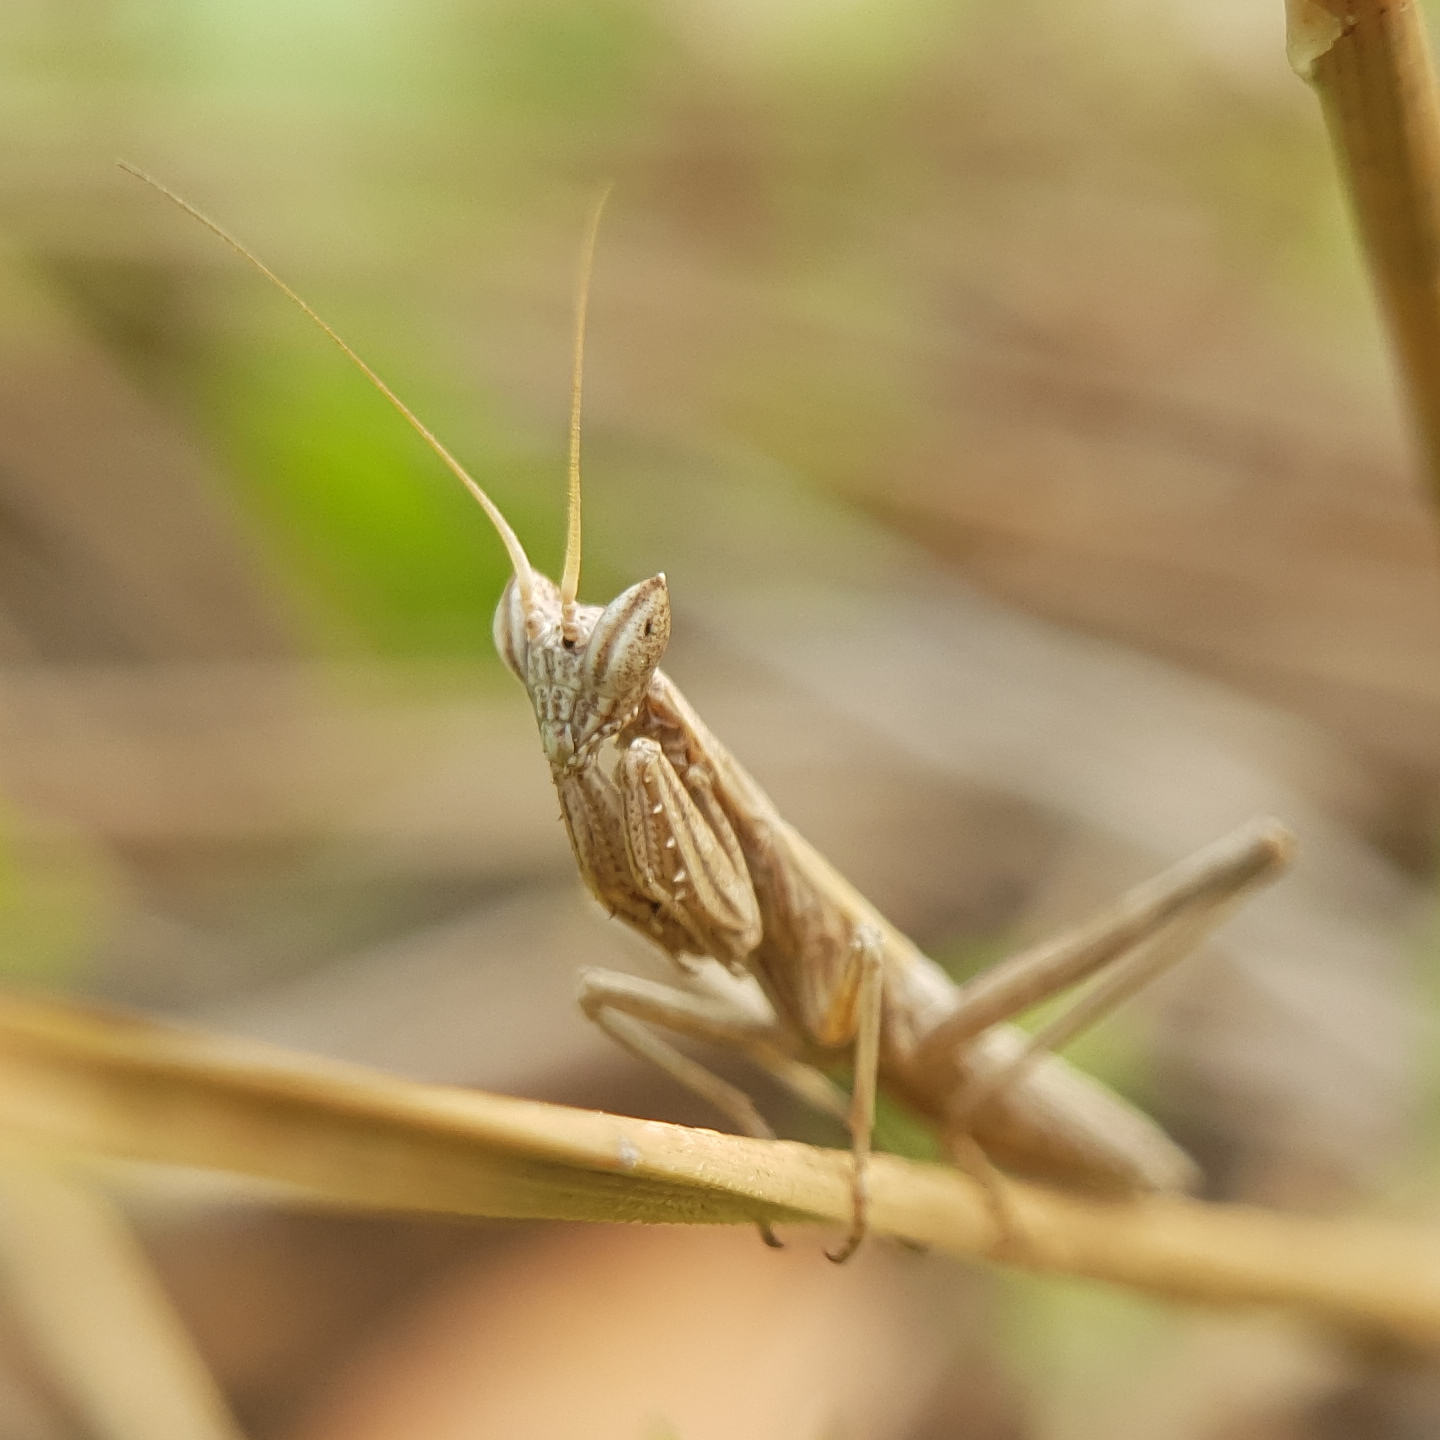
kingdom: Animalia
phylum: Arthropoda
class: Insecta
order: Mantodea
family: Amelidae
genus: Ameles
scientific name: Ameles heldreichi
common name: Heldreich's dwarf mantis
